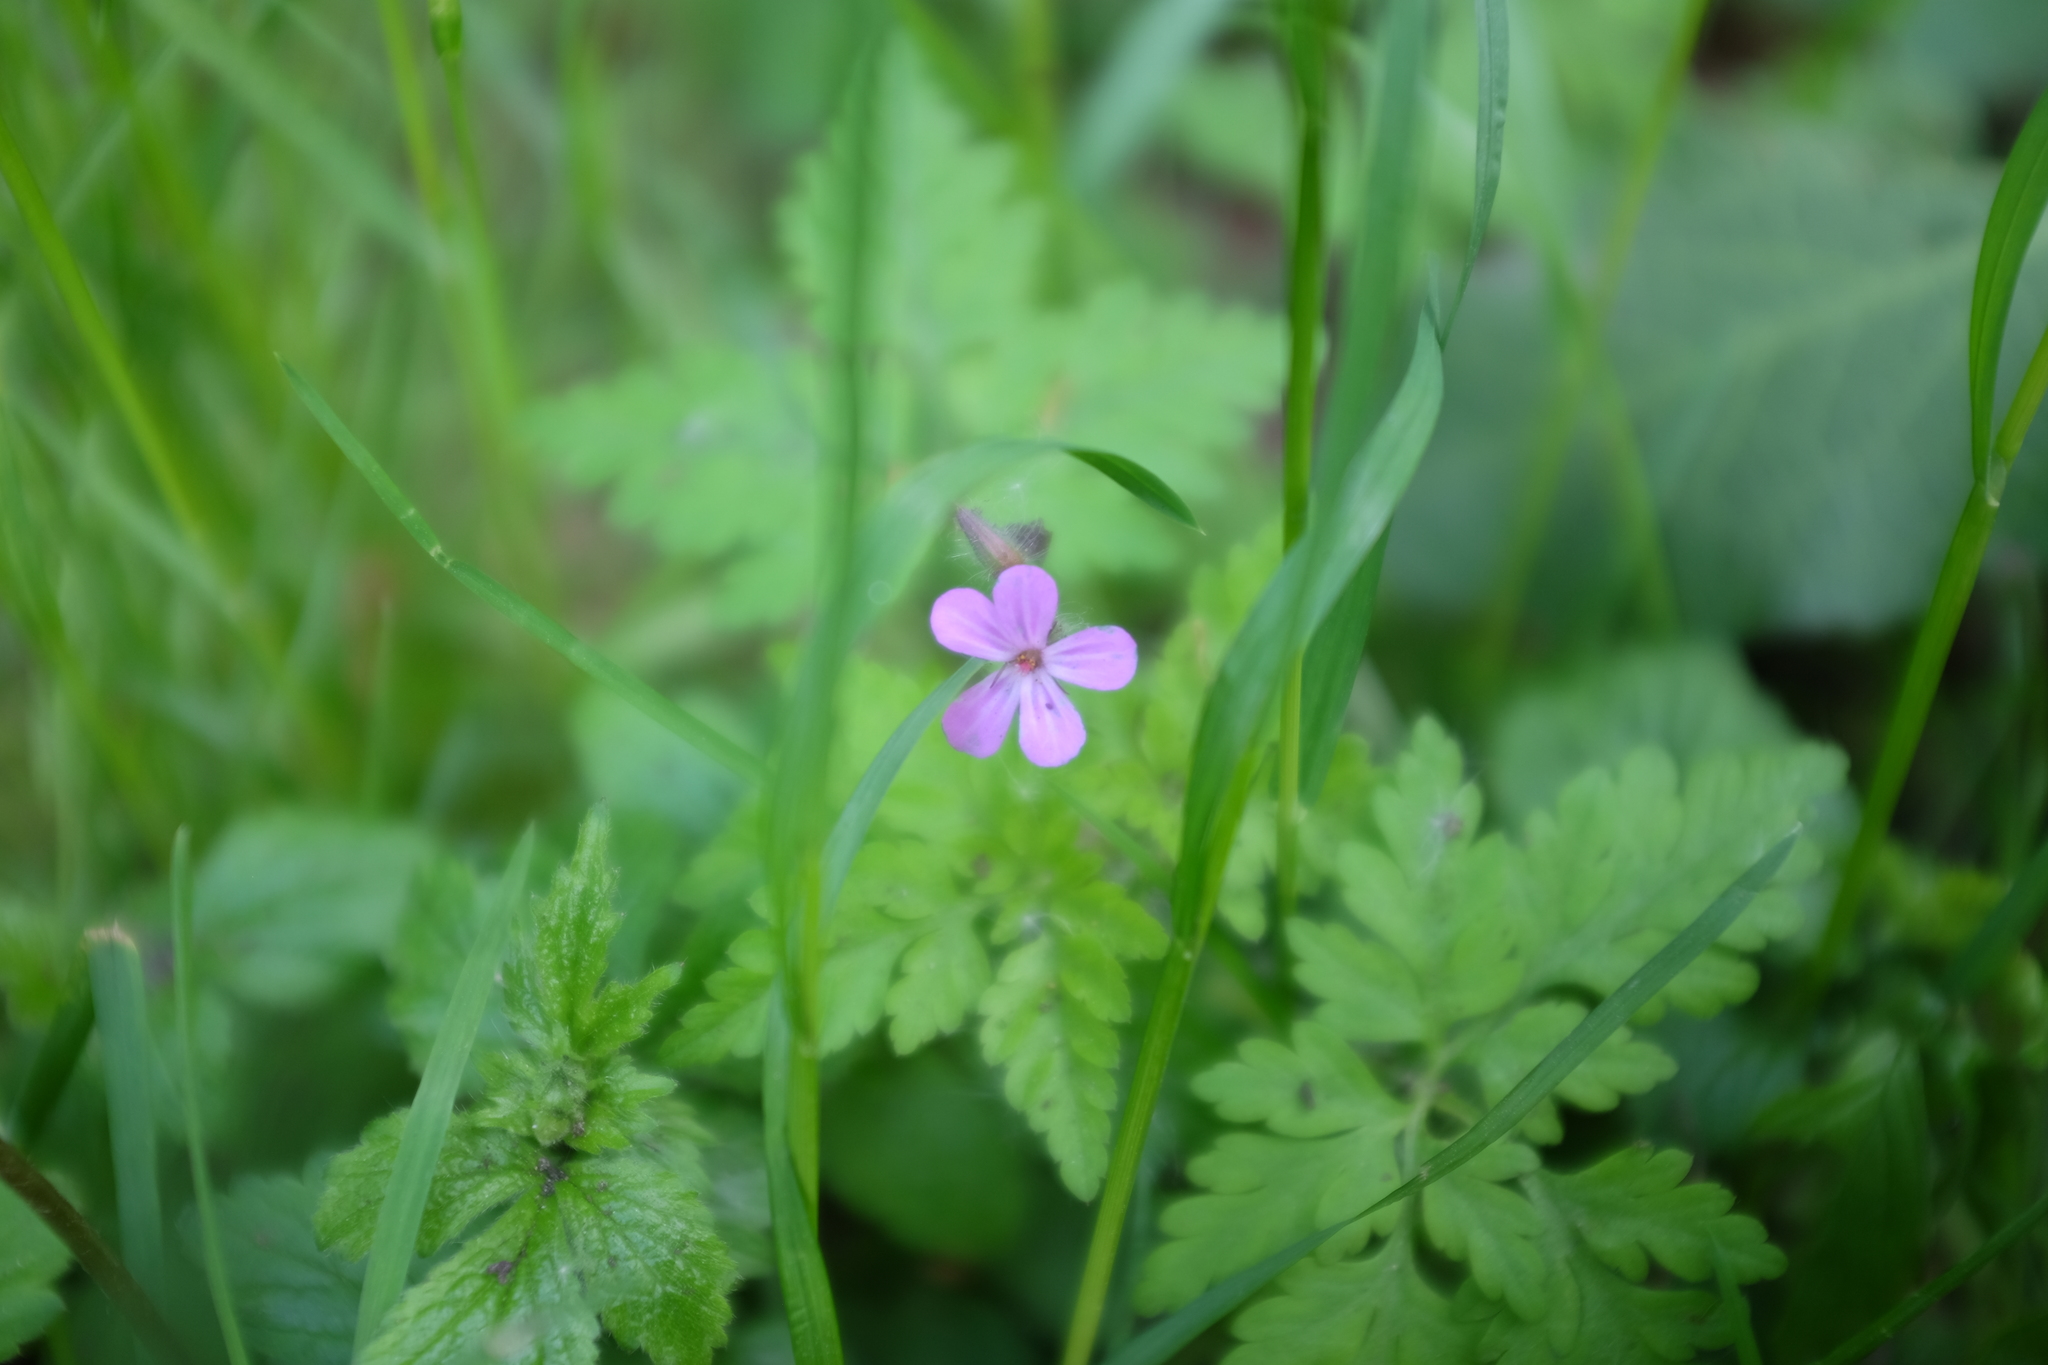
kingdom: Plantae
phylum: Tracheophyta
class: Magnoliopsida
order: Geraniales
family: Geraniaceae
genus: Geranium
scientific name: Geranium robertianum
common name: Herb-robert
